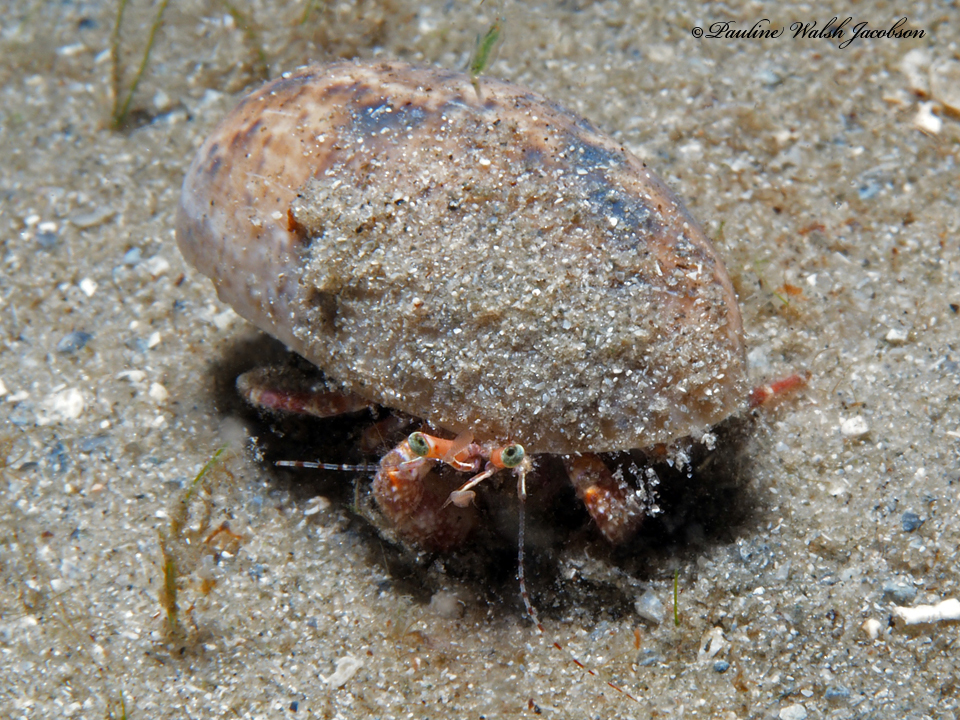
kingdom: Animalia
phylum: Arthropoda
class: Malacostraca
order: Decapoda
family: Diogenidae
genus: Petrochirus
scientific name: Petrochirus diogenes
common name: Giant hermit crab
